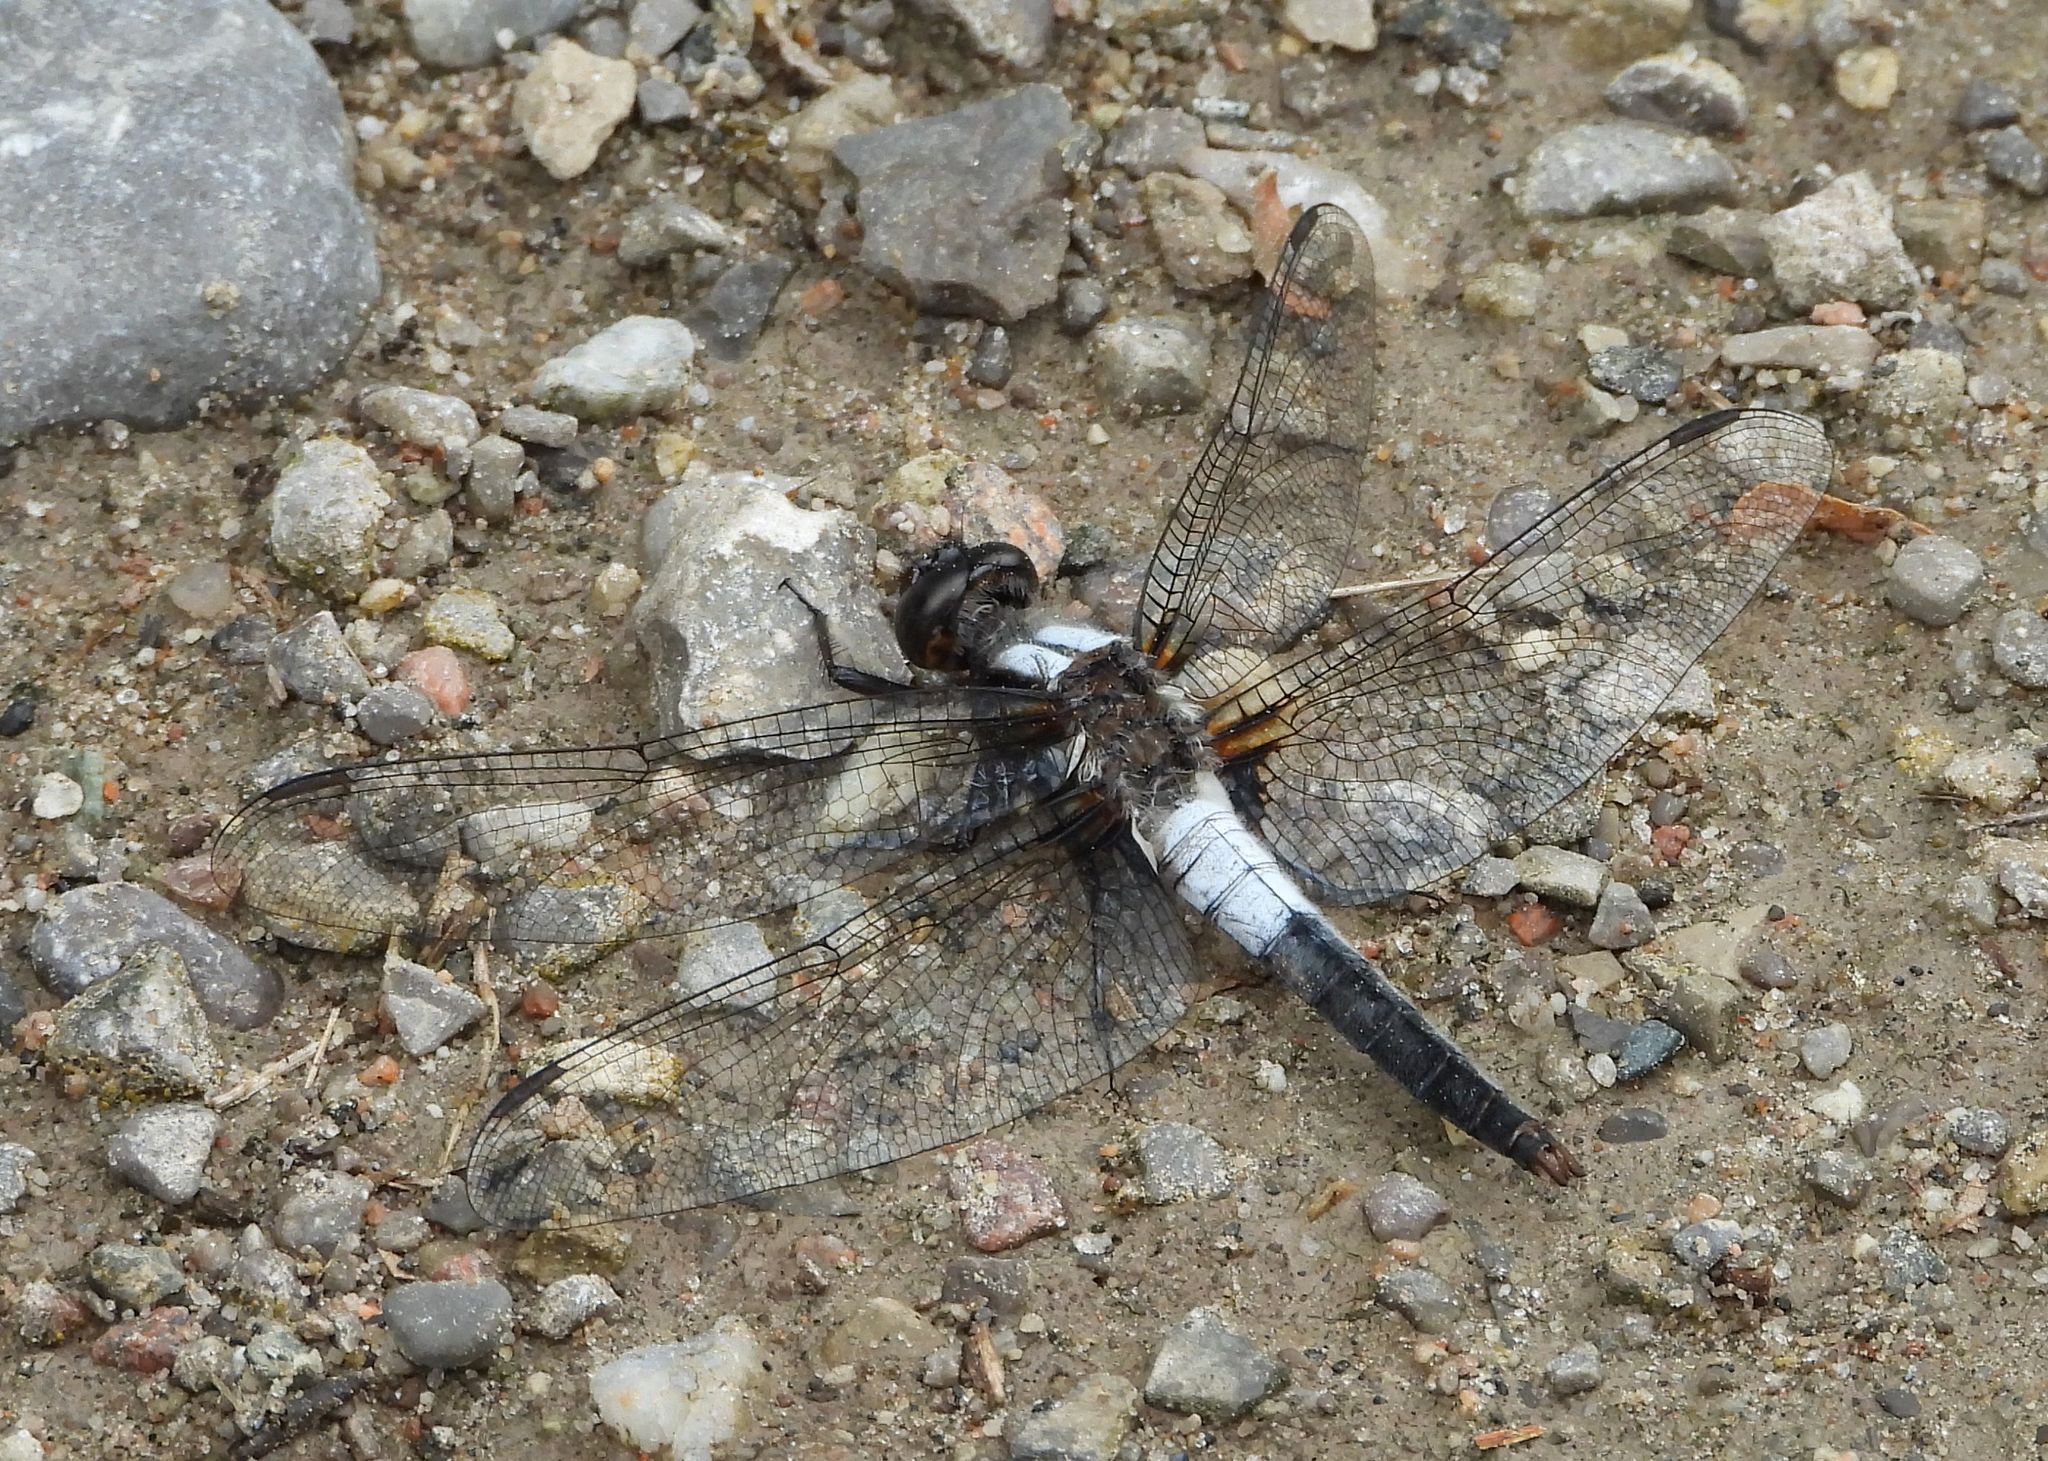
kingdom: Animalia
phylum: Arthropoda
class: Insecta
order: Odonata
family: Libellulidae
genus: Ladona
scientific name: Ladona julia
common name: Chalk-fronted corporal
